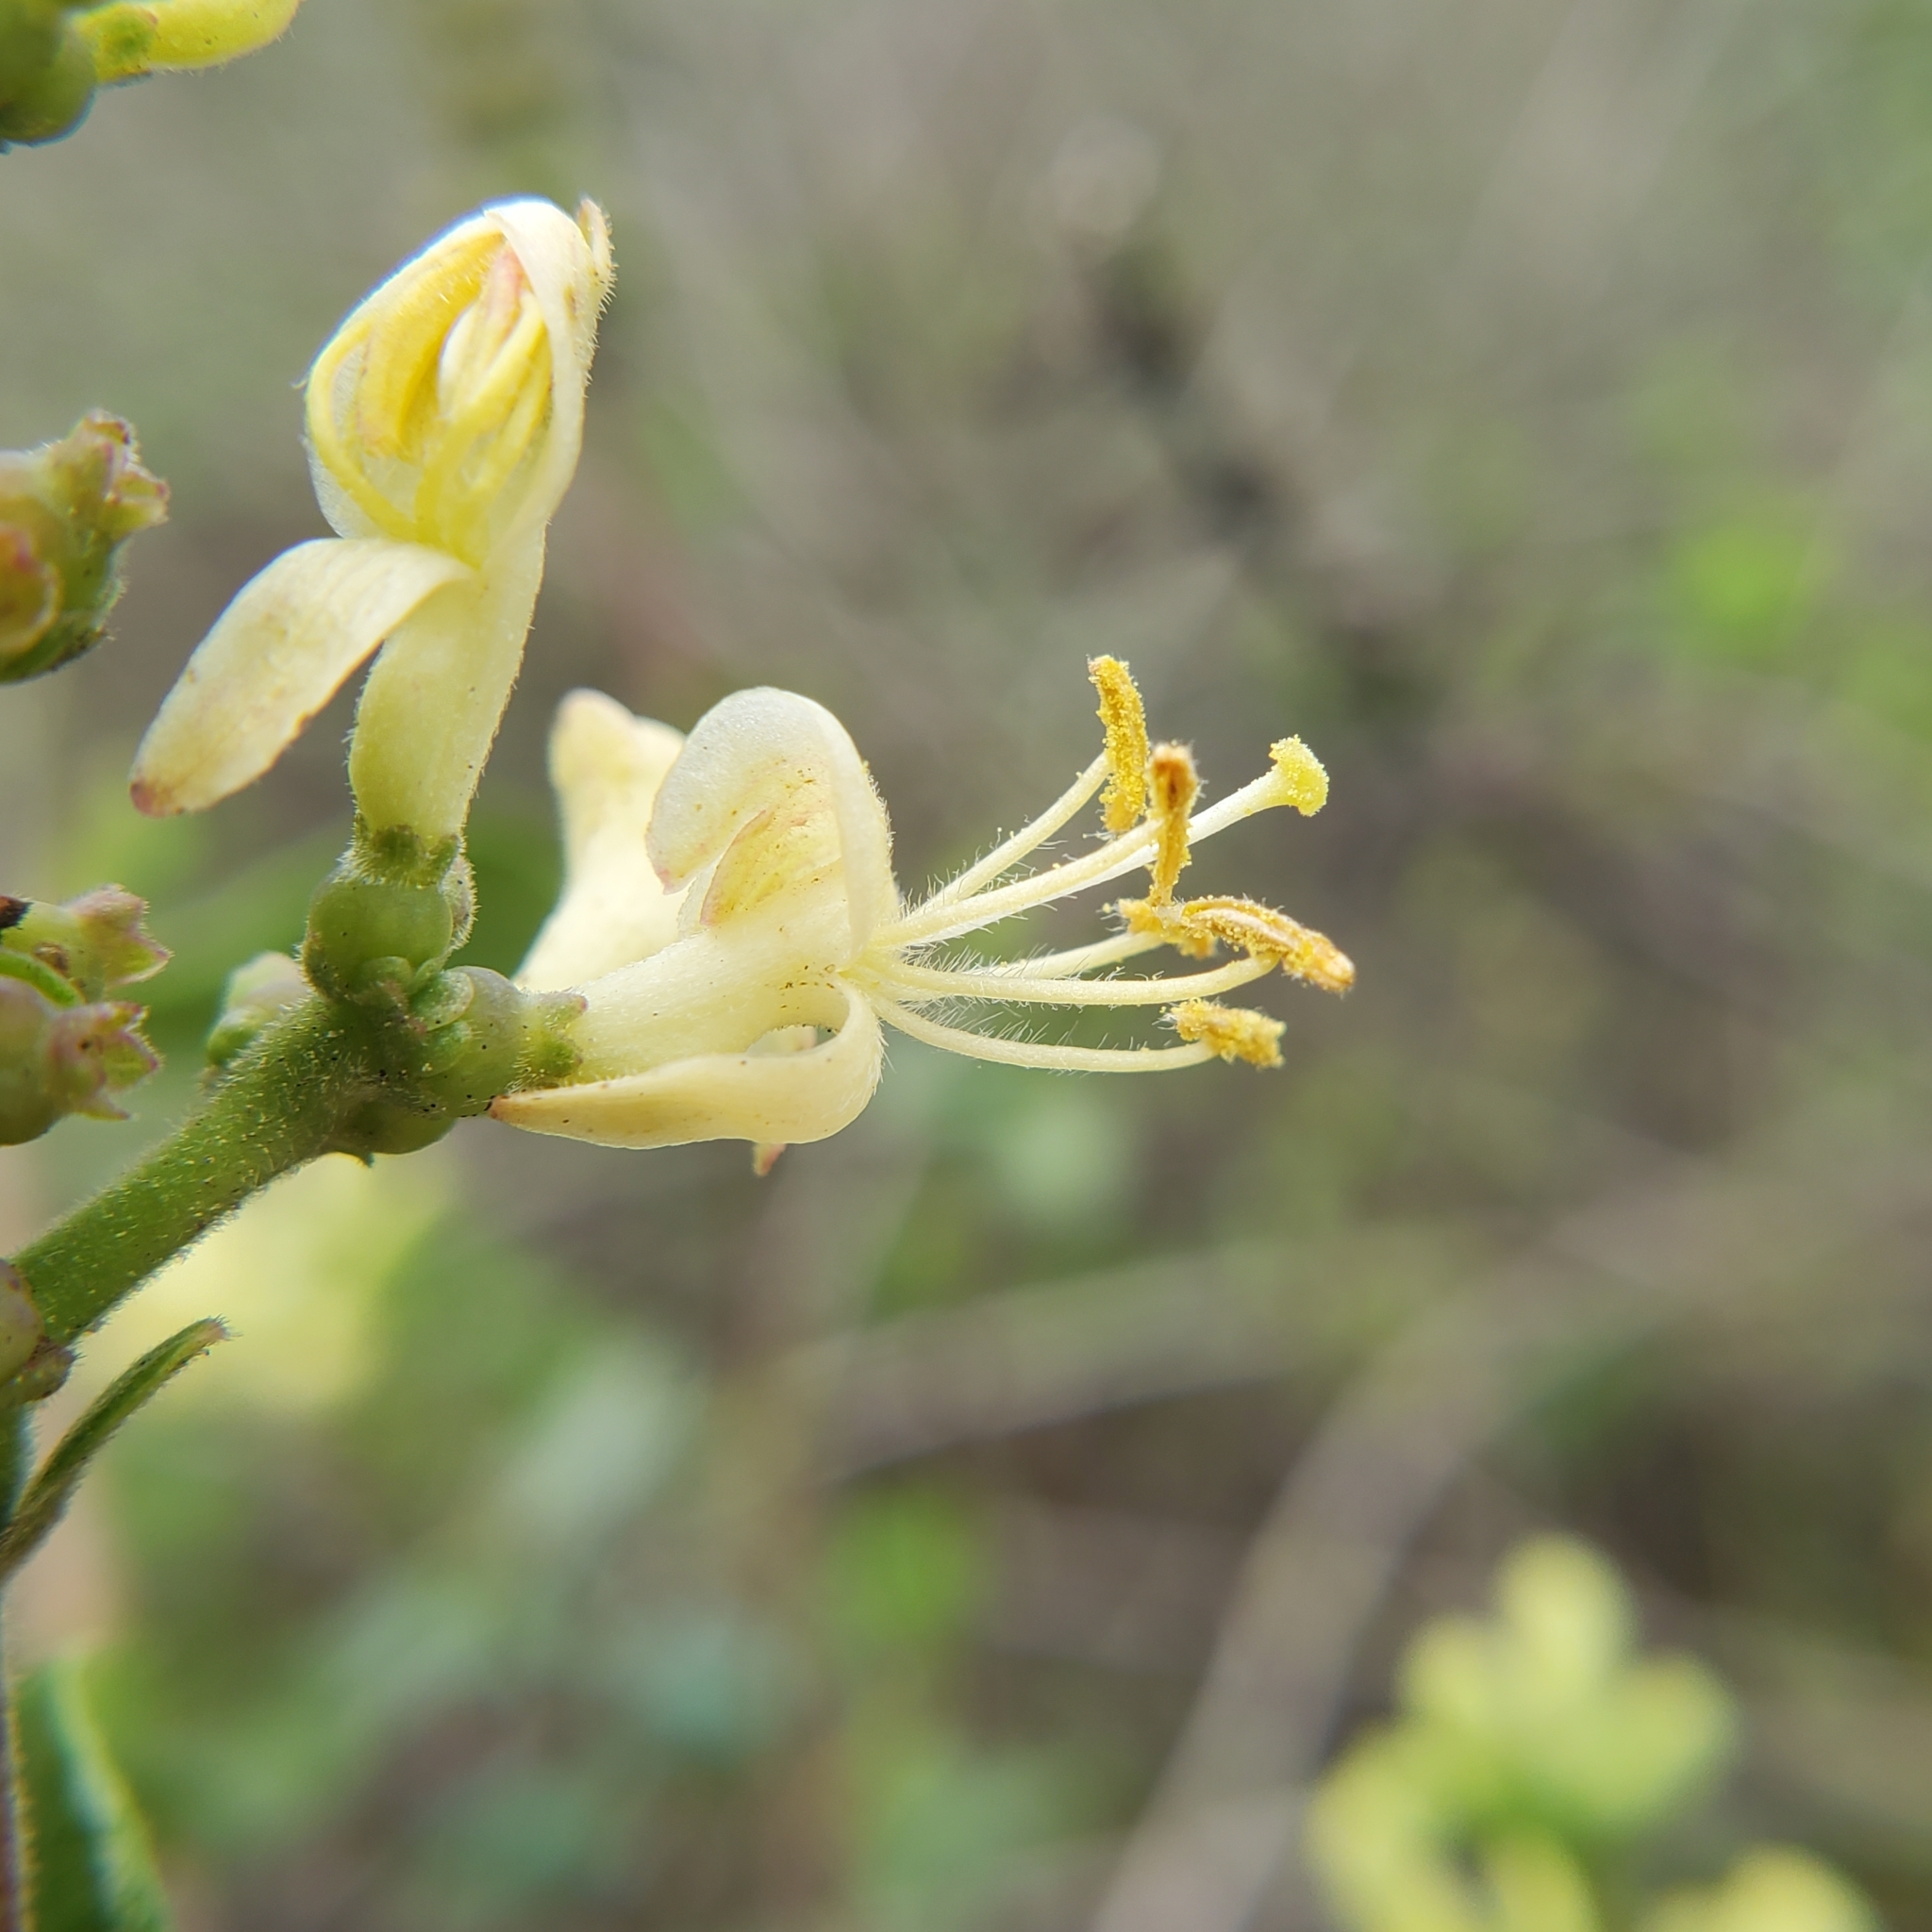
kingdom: Plantae
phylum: Tracheophyta
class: Magnoliopsida
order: Dipsacales
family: Caprifoliaceae
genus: Lonicera
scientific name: Lonicera subspicata
